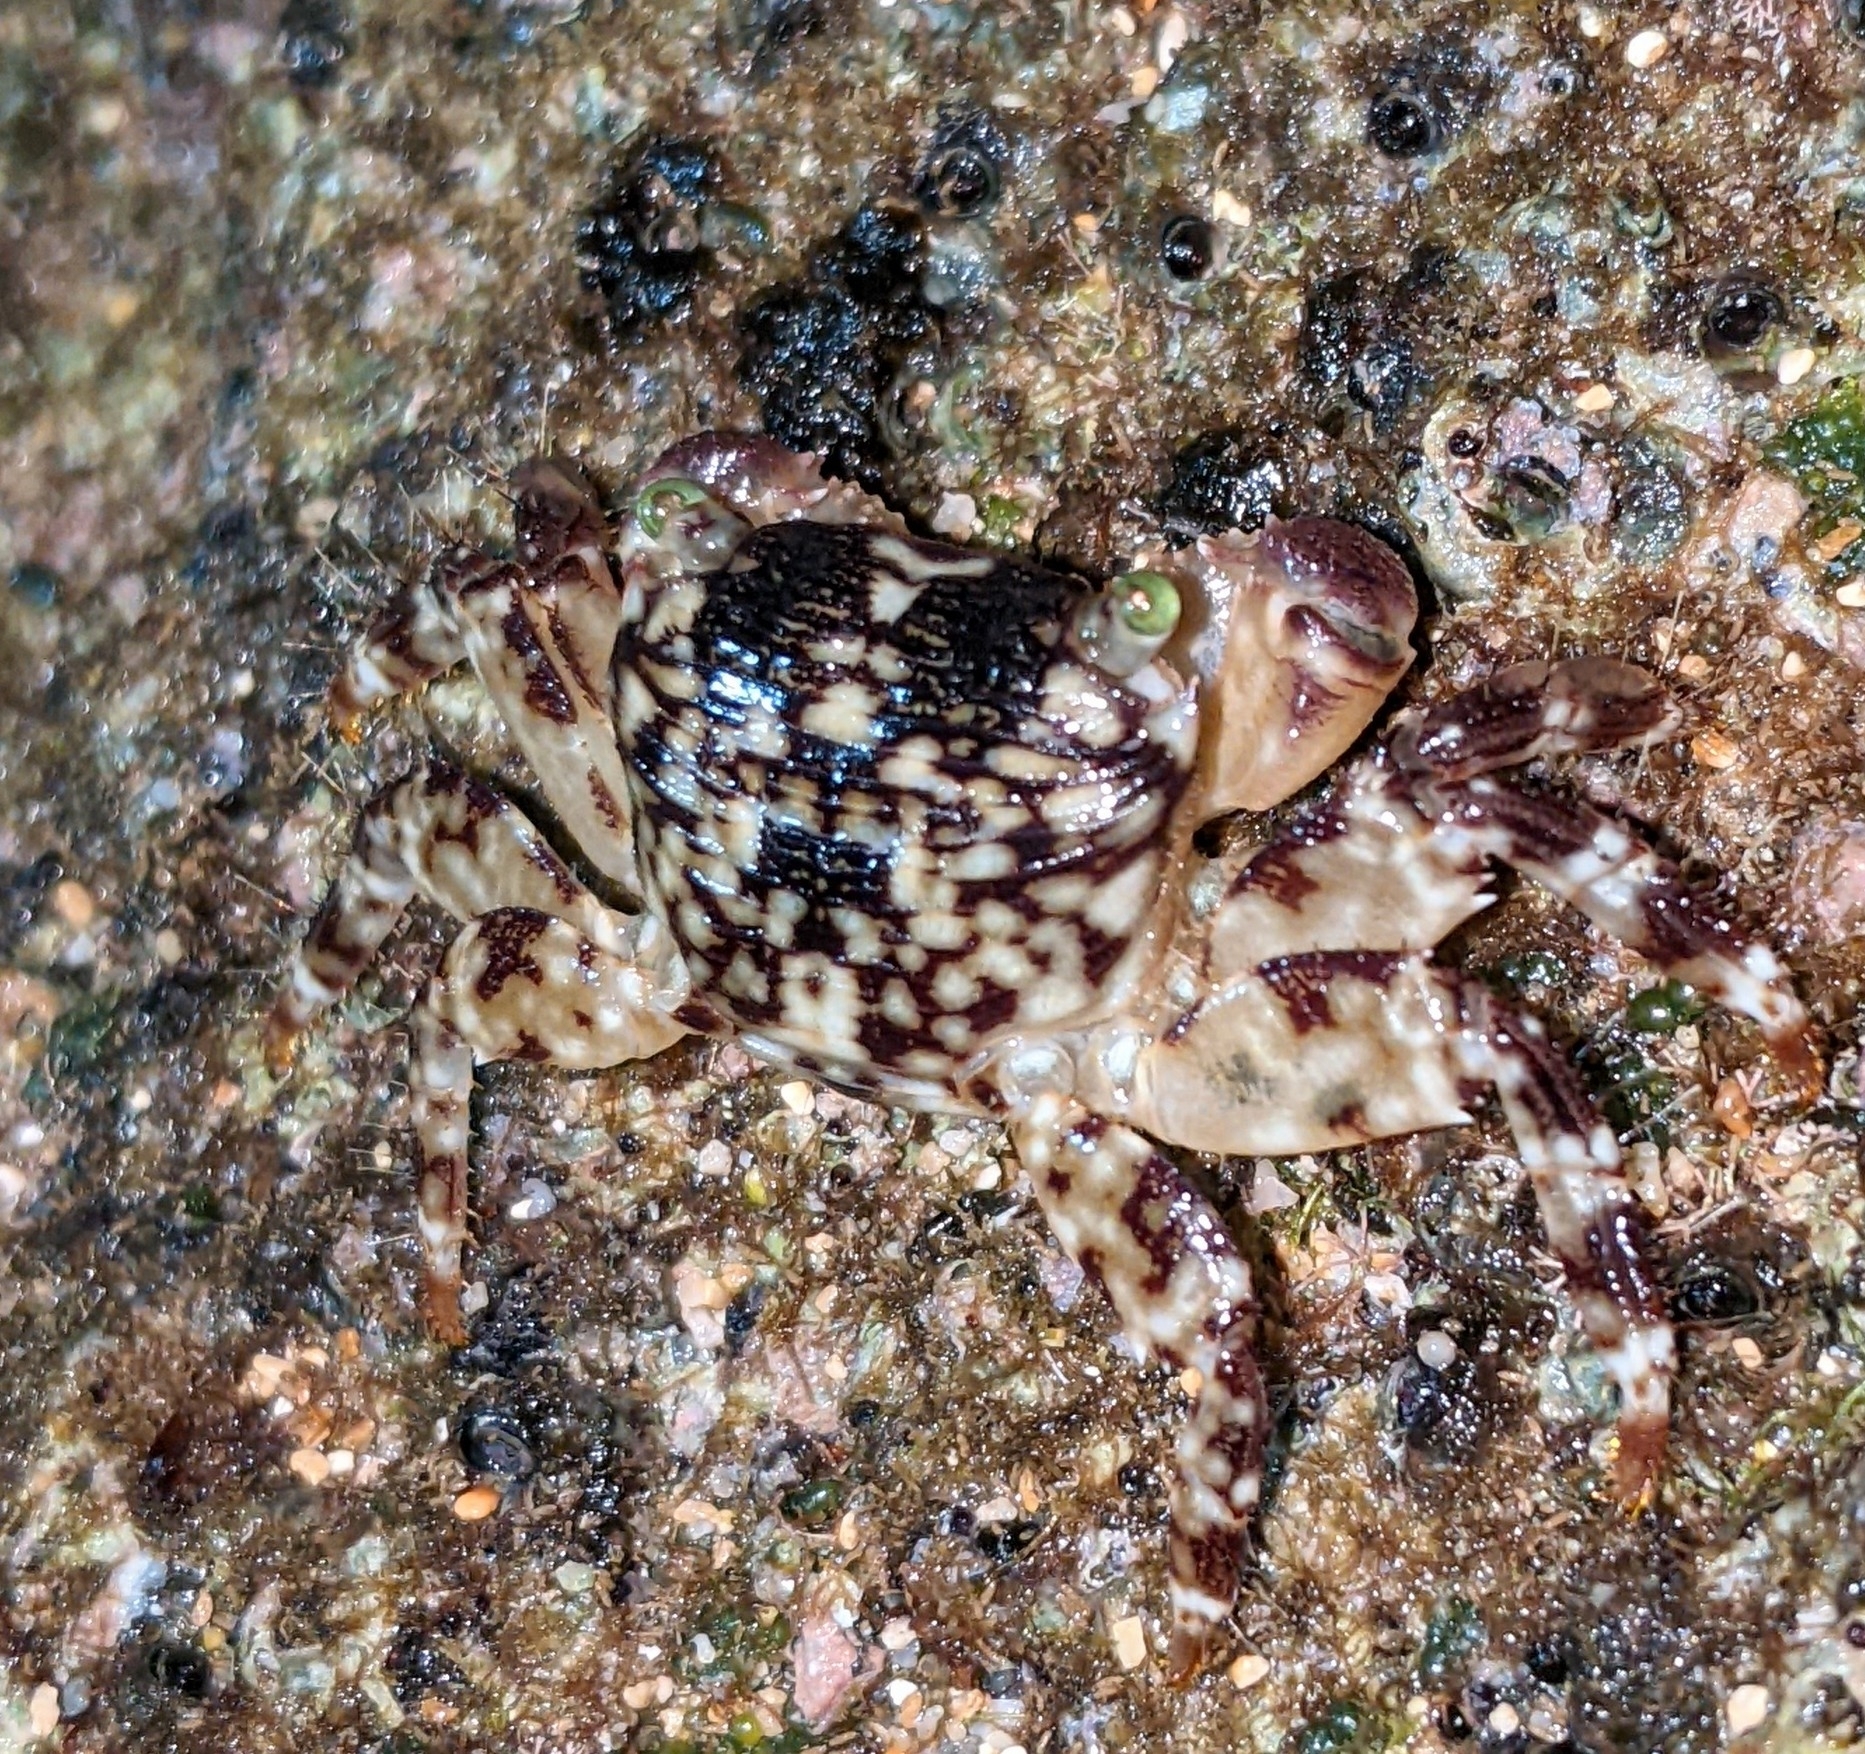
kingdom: Animalia
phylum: Arthropoda
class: Malacostraca
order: Decapoda
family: Grapsidae
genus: Pachygrapsus
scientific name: Pachygrapsus plicatus
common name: Pleated rock crab
